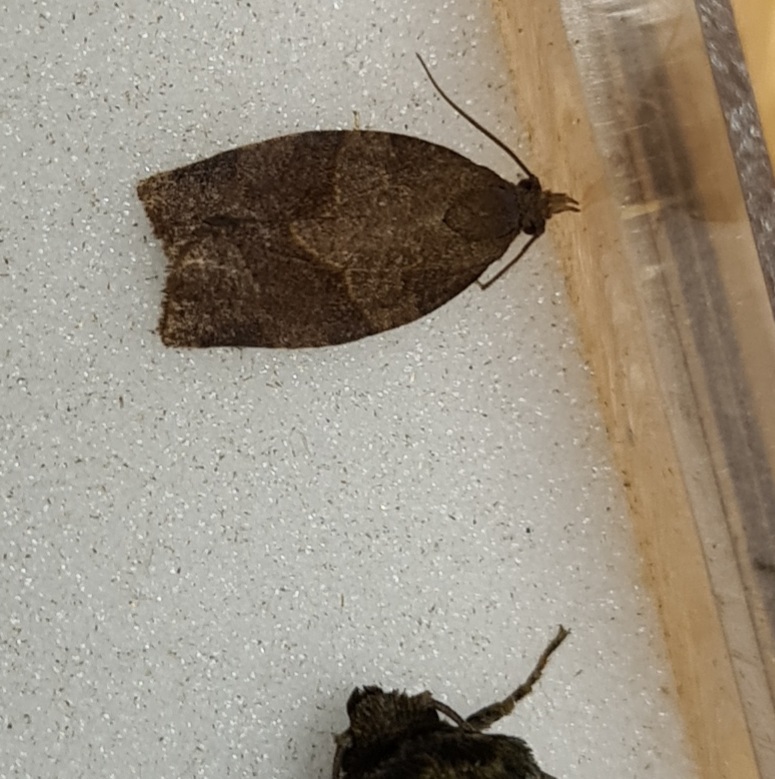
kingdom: Animalia
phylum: Arthropoda
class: Insecta
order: Lepidoptera
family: Tortricidae
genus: Pandemis
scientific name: Pandemis heparana
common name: Dark fruit-tree tortrix
